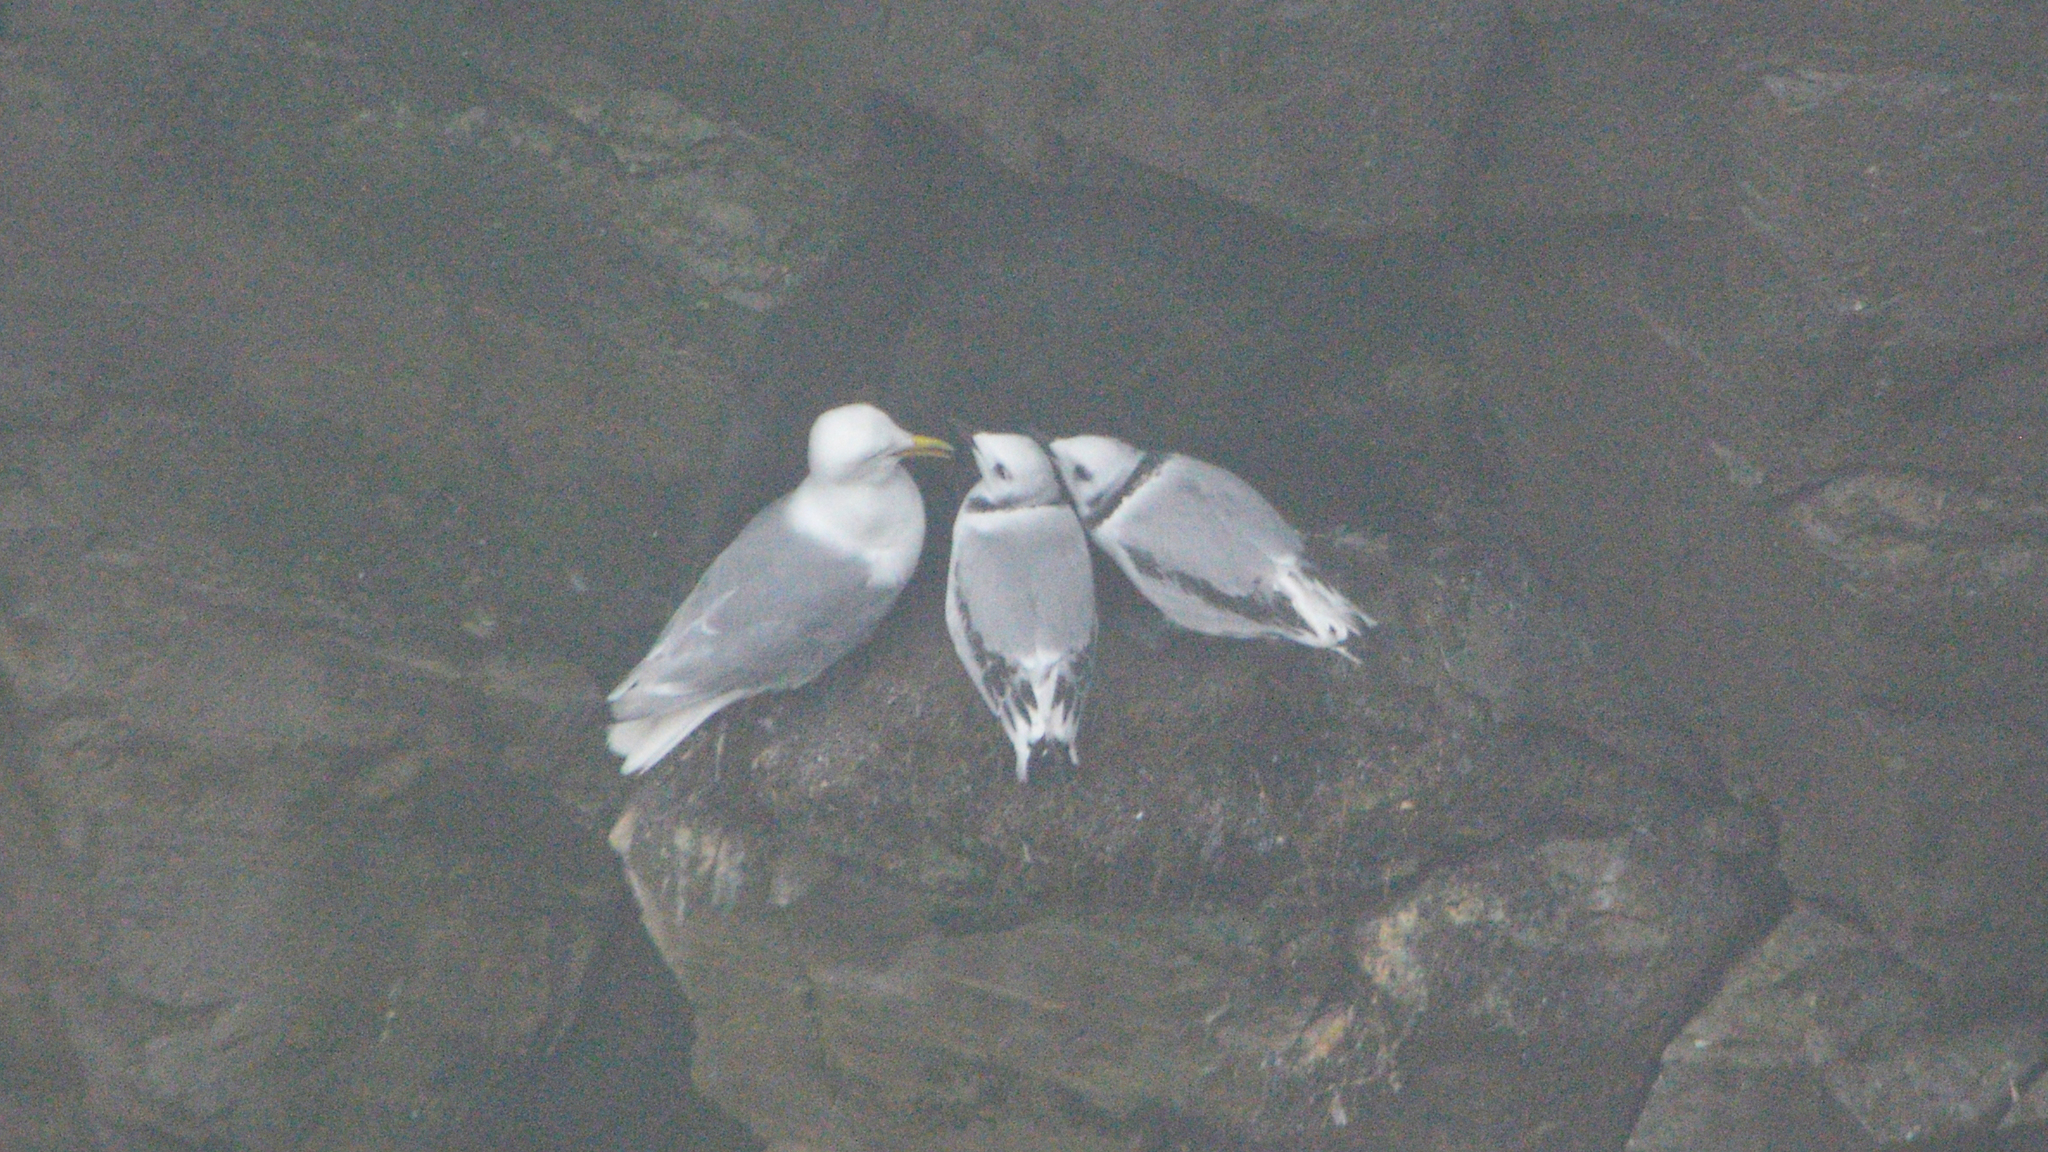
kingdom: Animalia
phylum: Chordata
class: Aves
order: Charadriiformes
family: Laridae
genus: Rissa
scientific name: Rissa tridactyla
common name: Black-legged kittiwake
